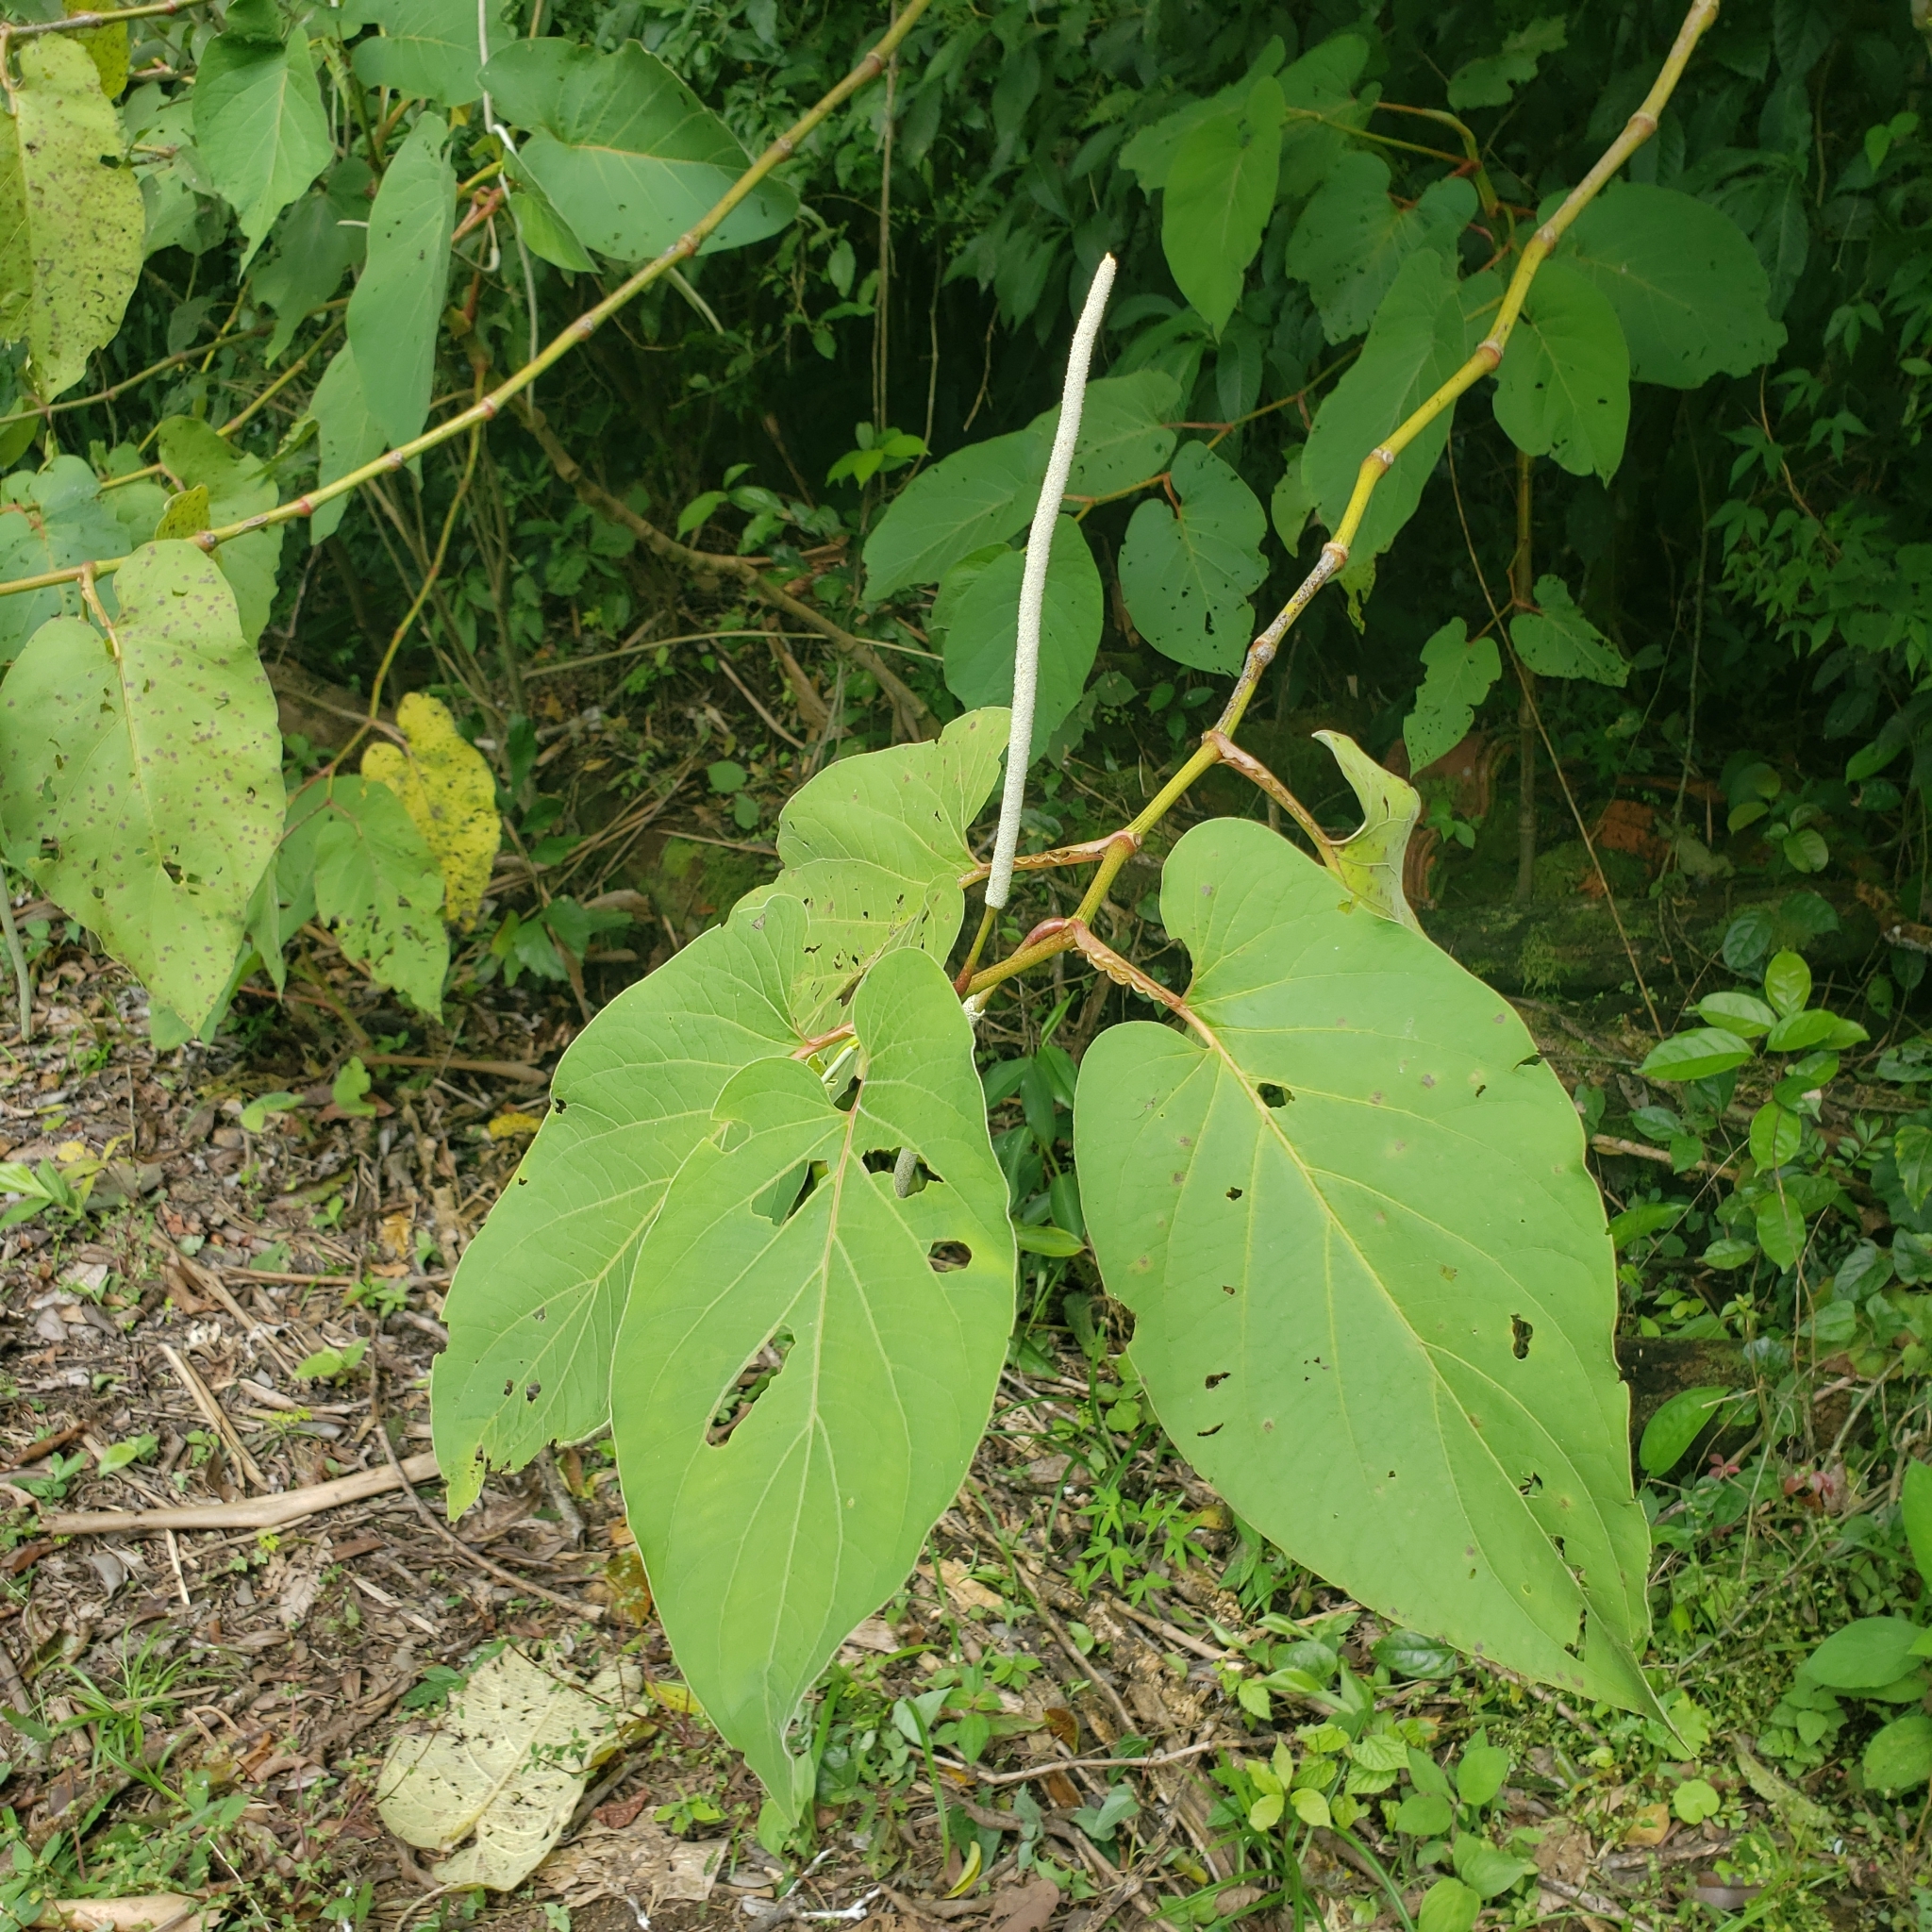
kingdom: Plantae
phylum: Tracheophyta
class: Magnoliopsida
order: Piperales
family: Piperaceae
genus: Piper
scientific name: Piper auritum
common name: Vera cruz pepper
